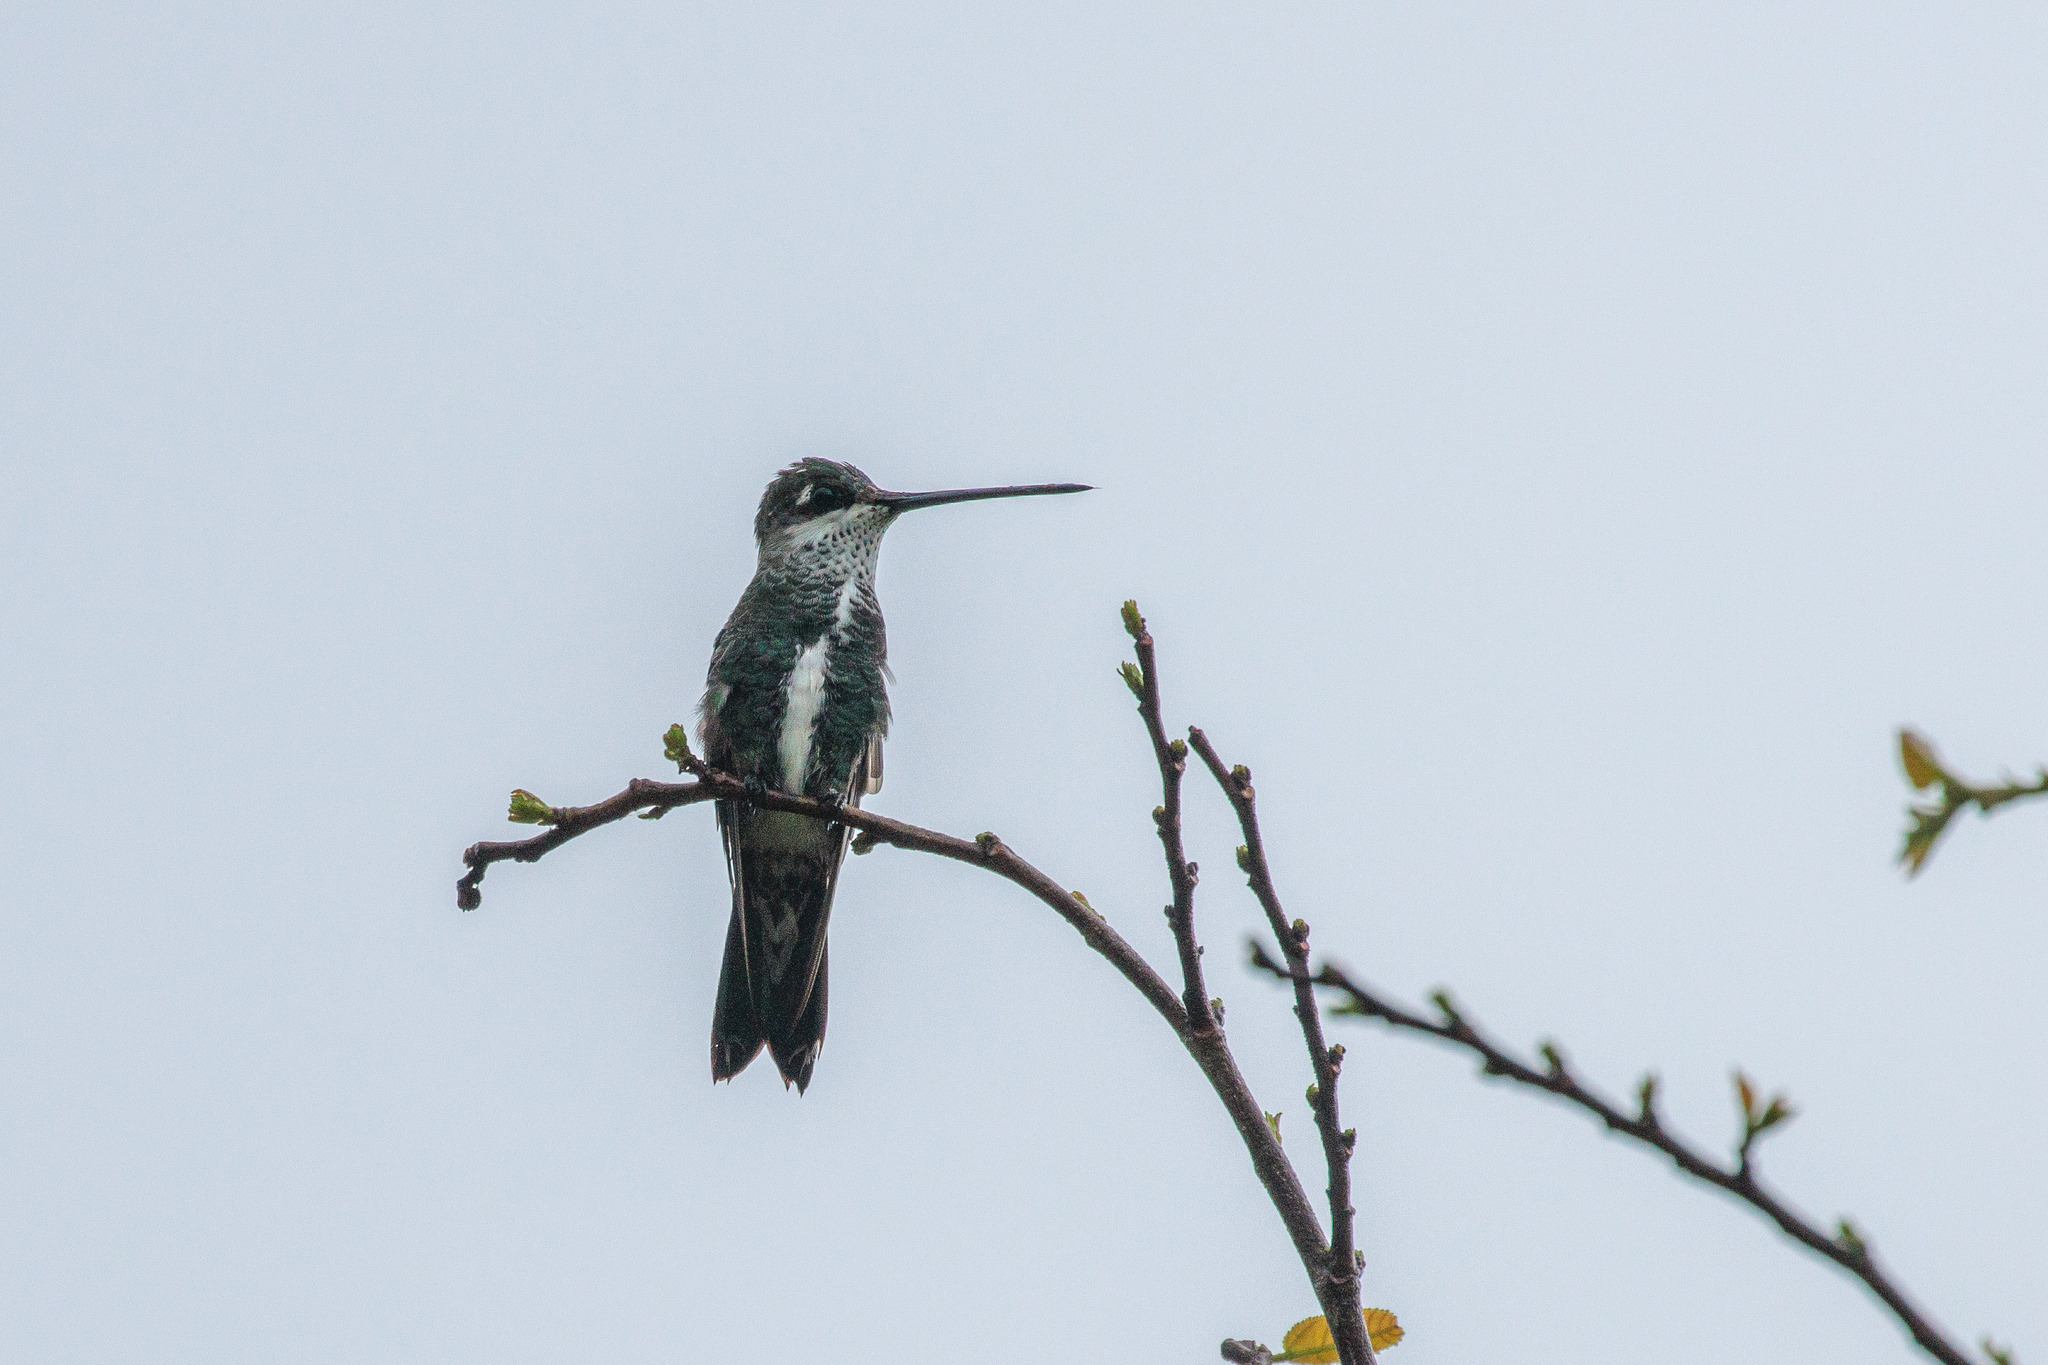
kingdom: Animalia
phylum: Chordata
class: Aves
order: Apodiformes
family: Trochilidae
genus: Heliomaster
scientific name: Heliomaster squamosus
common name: Stripe-breasted starthroat
